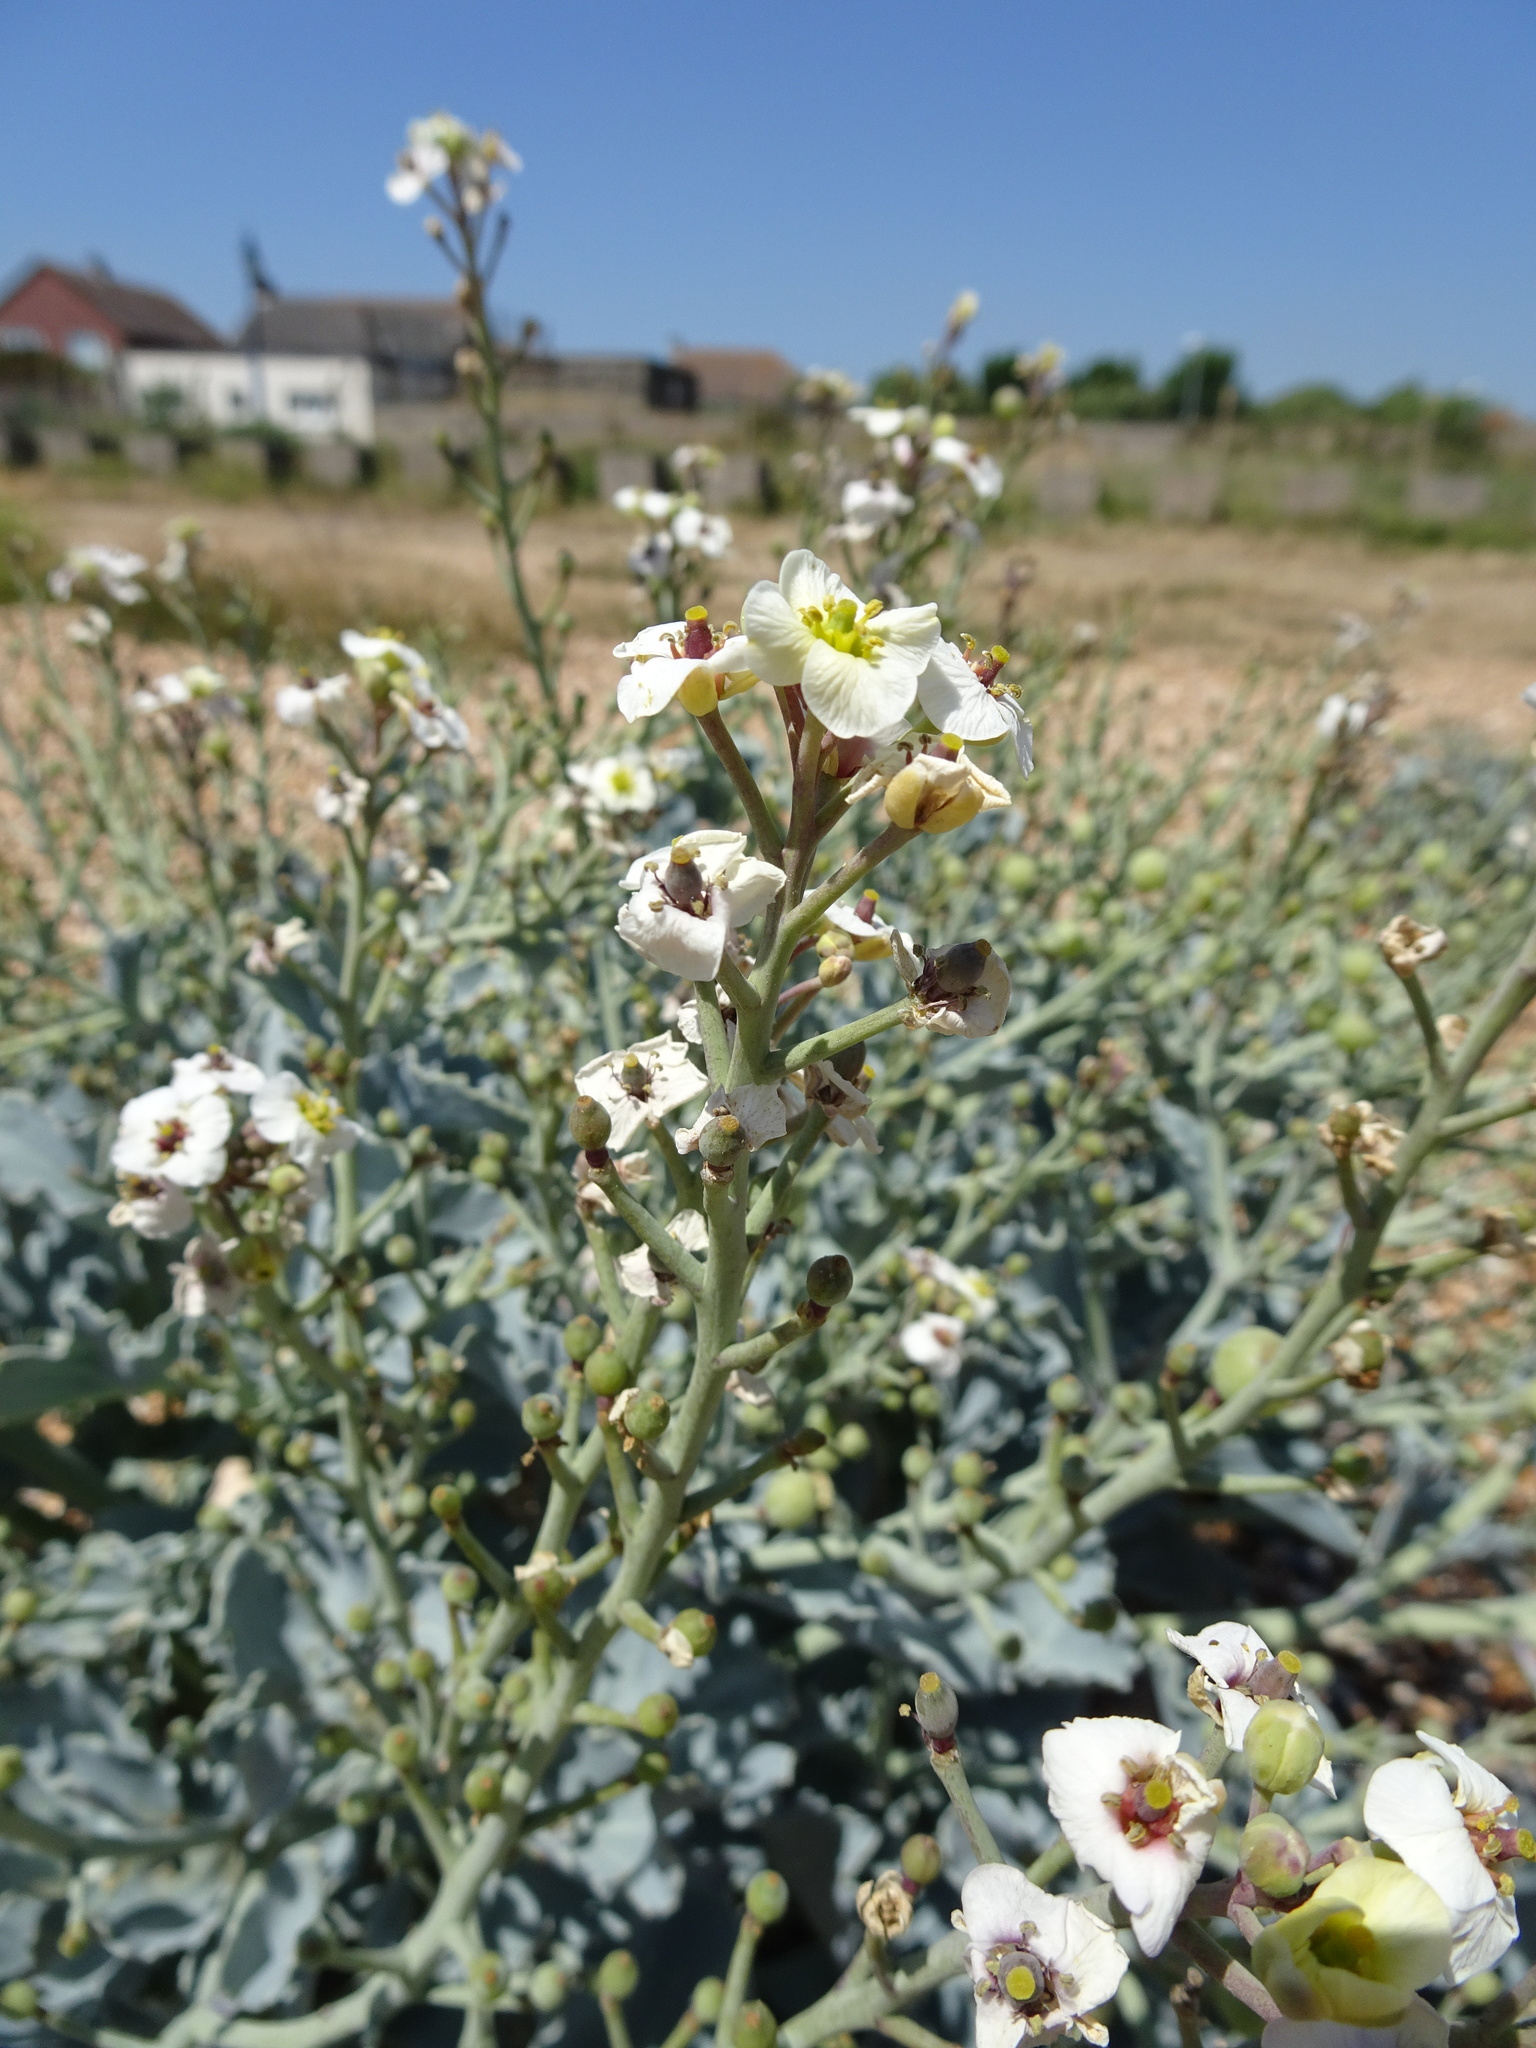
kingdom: Plantae
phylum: Tracheophyta
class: Magnoliopsida
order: Brassicales
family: Brassicaceae
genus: Crambe
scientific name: Crambe maritima
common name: Sea-kale
